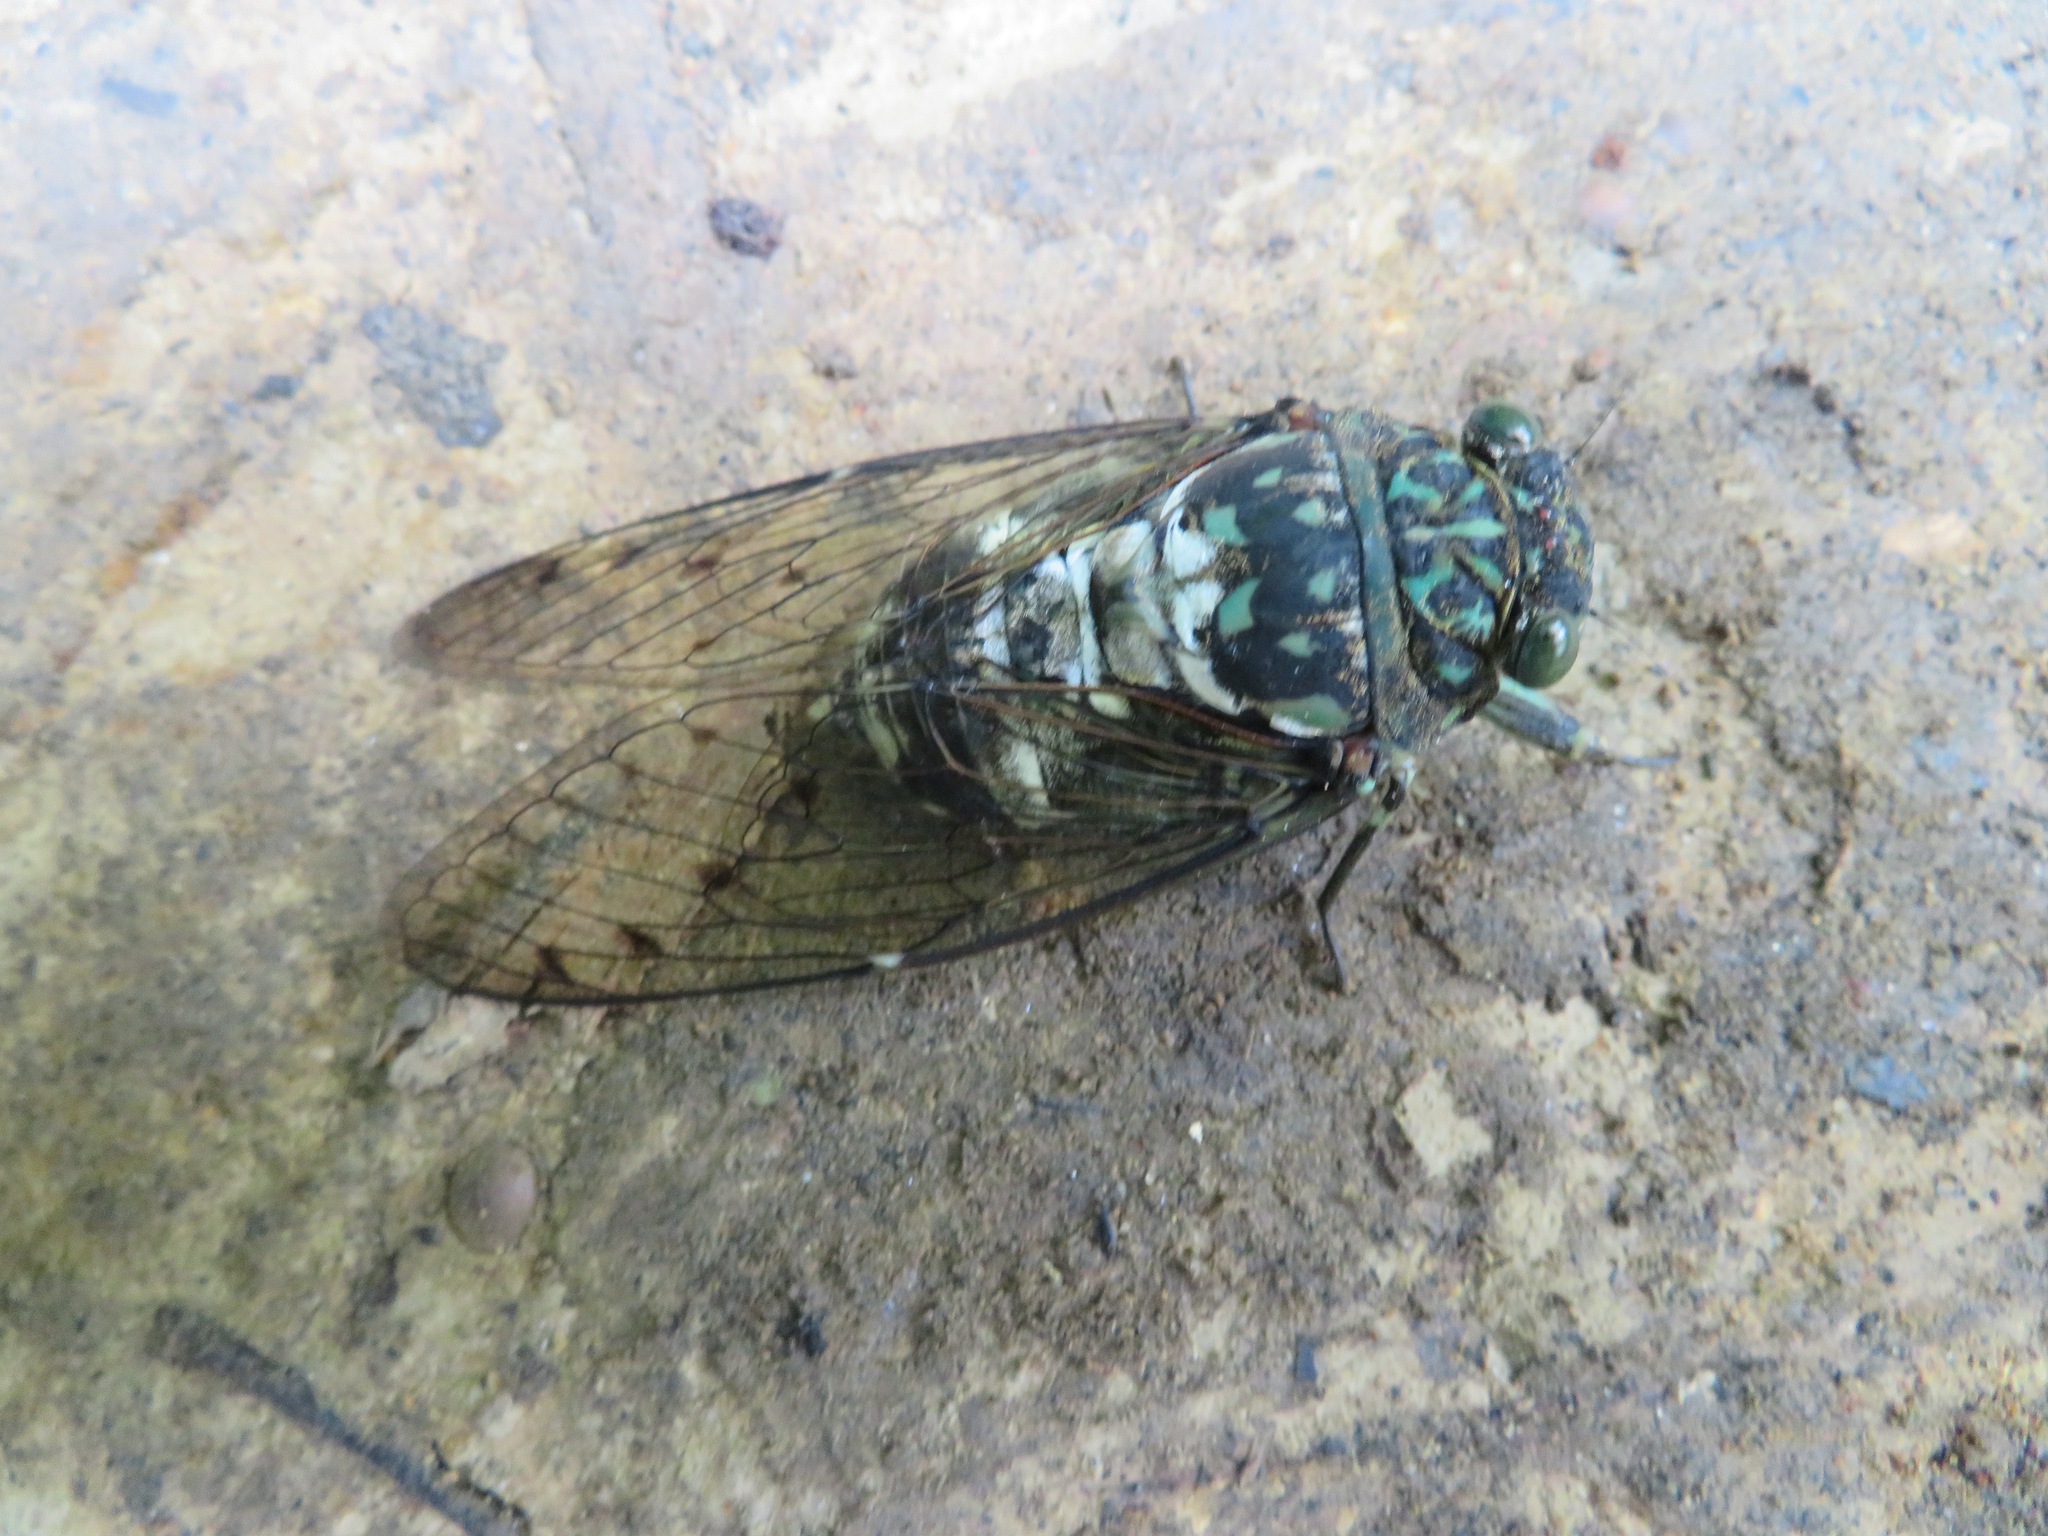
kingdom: Animalia
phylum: Arthropoda
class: Insecta
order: Hemiptera
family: Cicadidae
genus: Hyalessa
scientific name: Hyalessa maculaticollis
